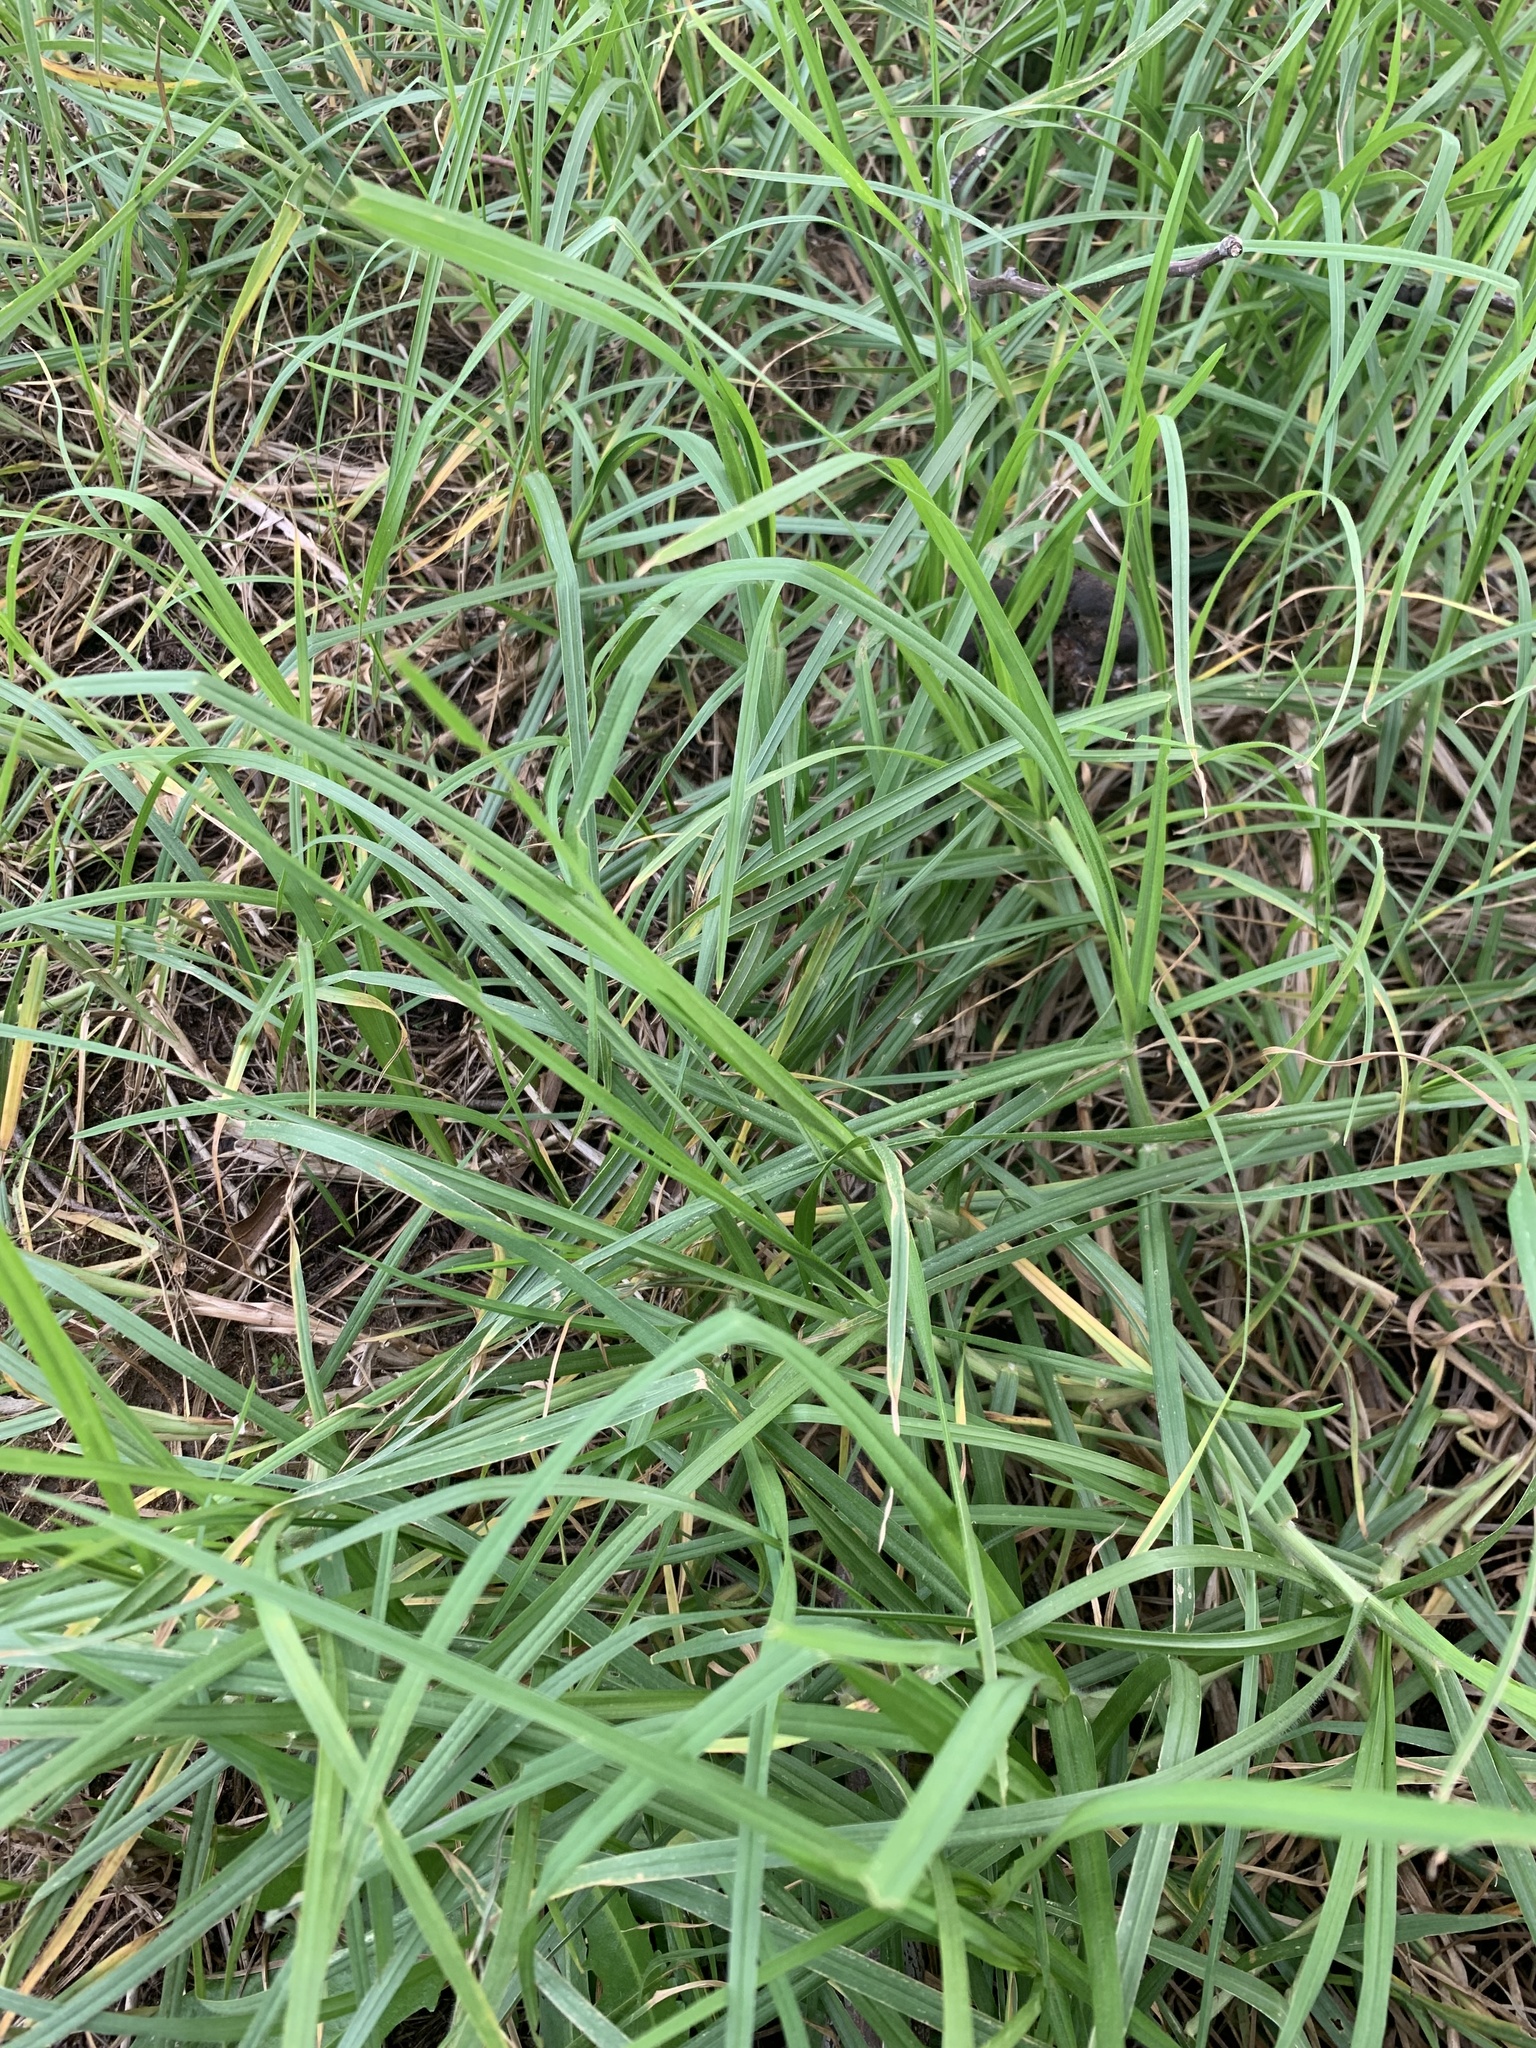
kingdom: Plantae
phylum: Tracheophyta
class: Liliopsida
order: Poales
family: Poaceae
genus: Cenchrus
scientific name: Cenchrus clandestinus
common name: Kikuyugrass
